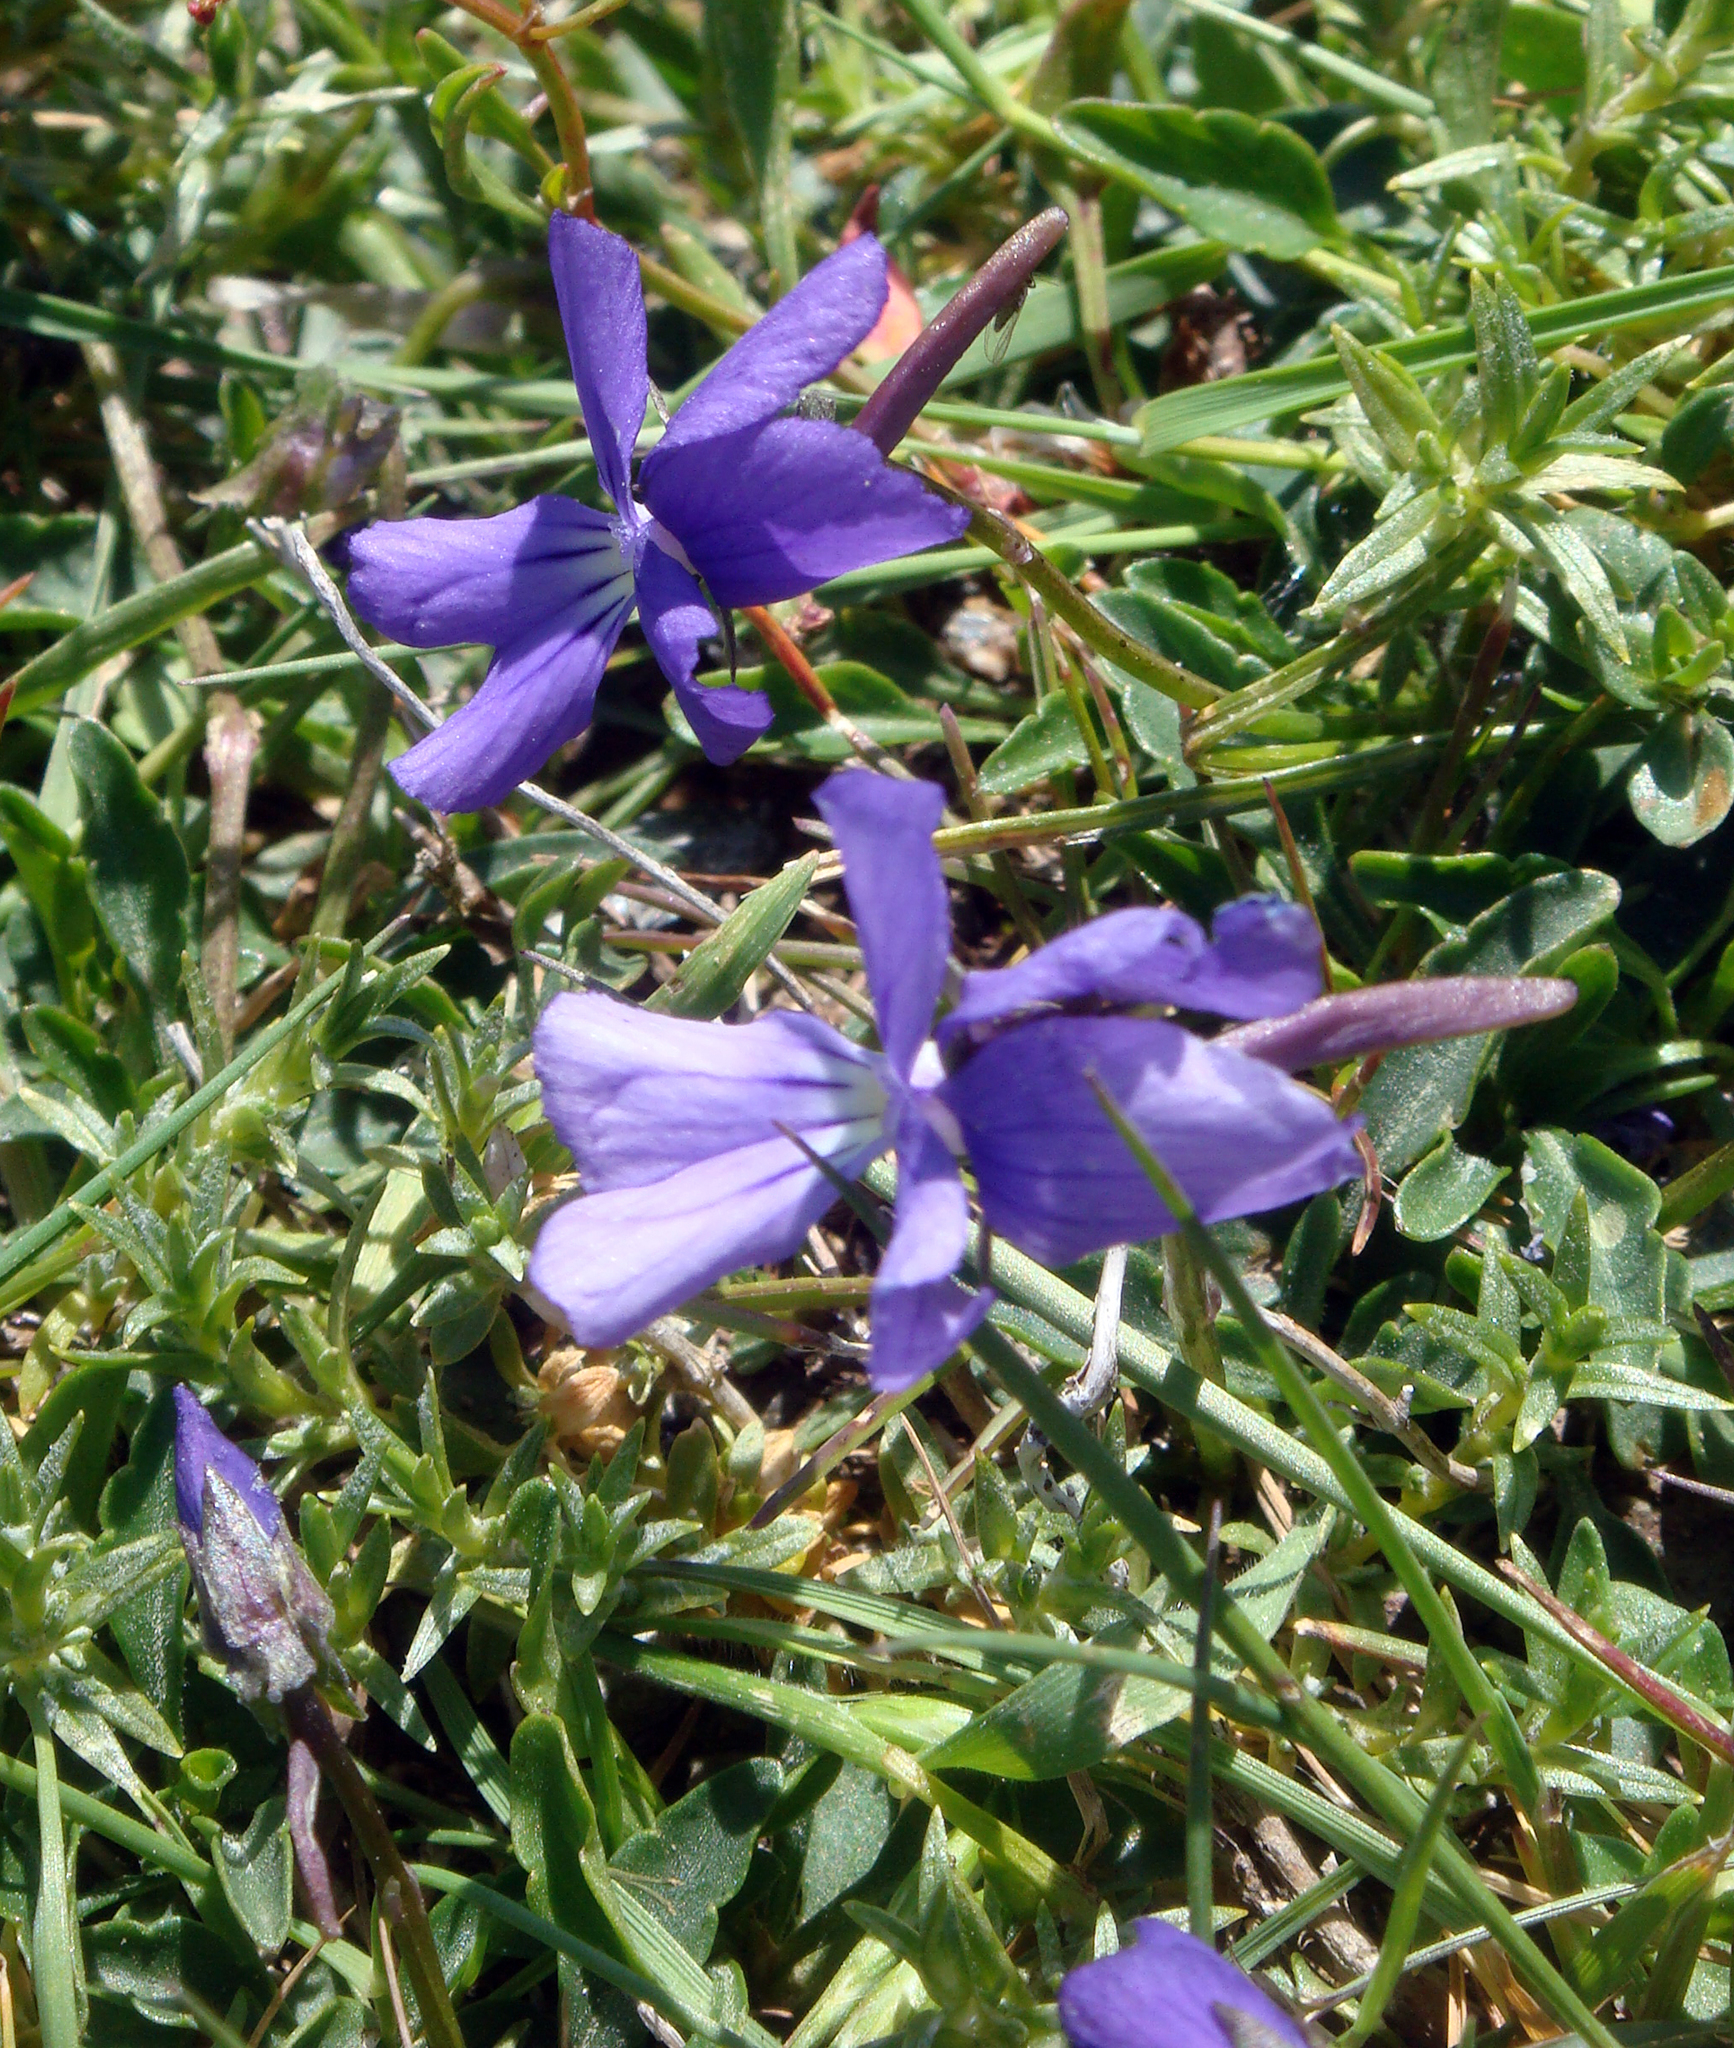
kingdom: Plantae
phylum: Tracheophyta
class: Magnoliopsida
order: Malpighiales
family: Violaceae
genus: Viola
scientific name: Viola corsica
